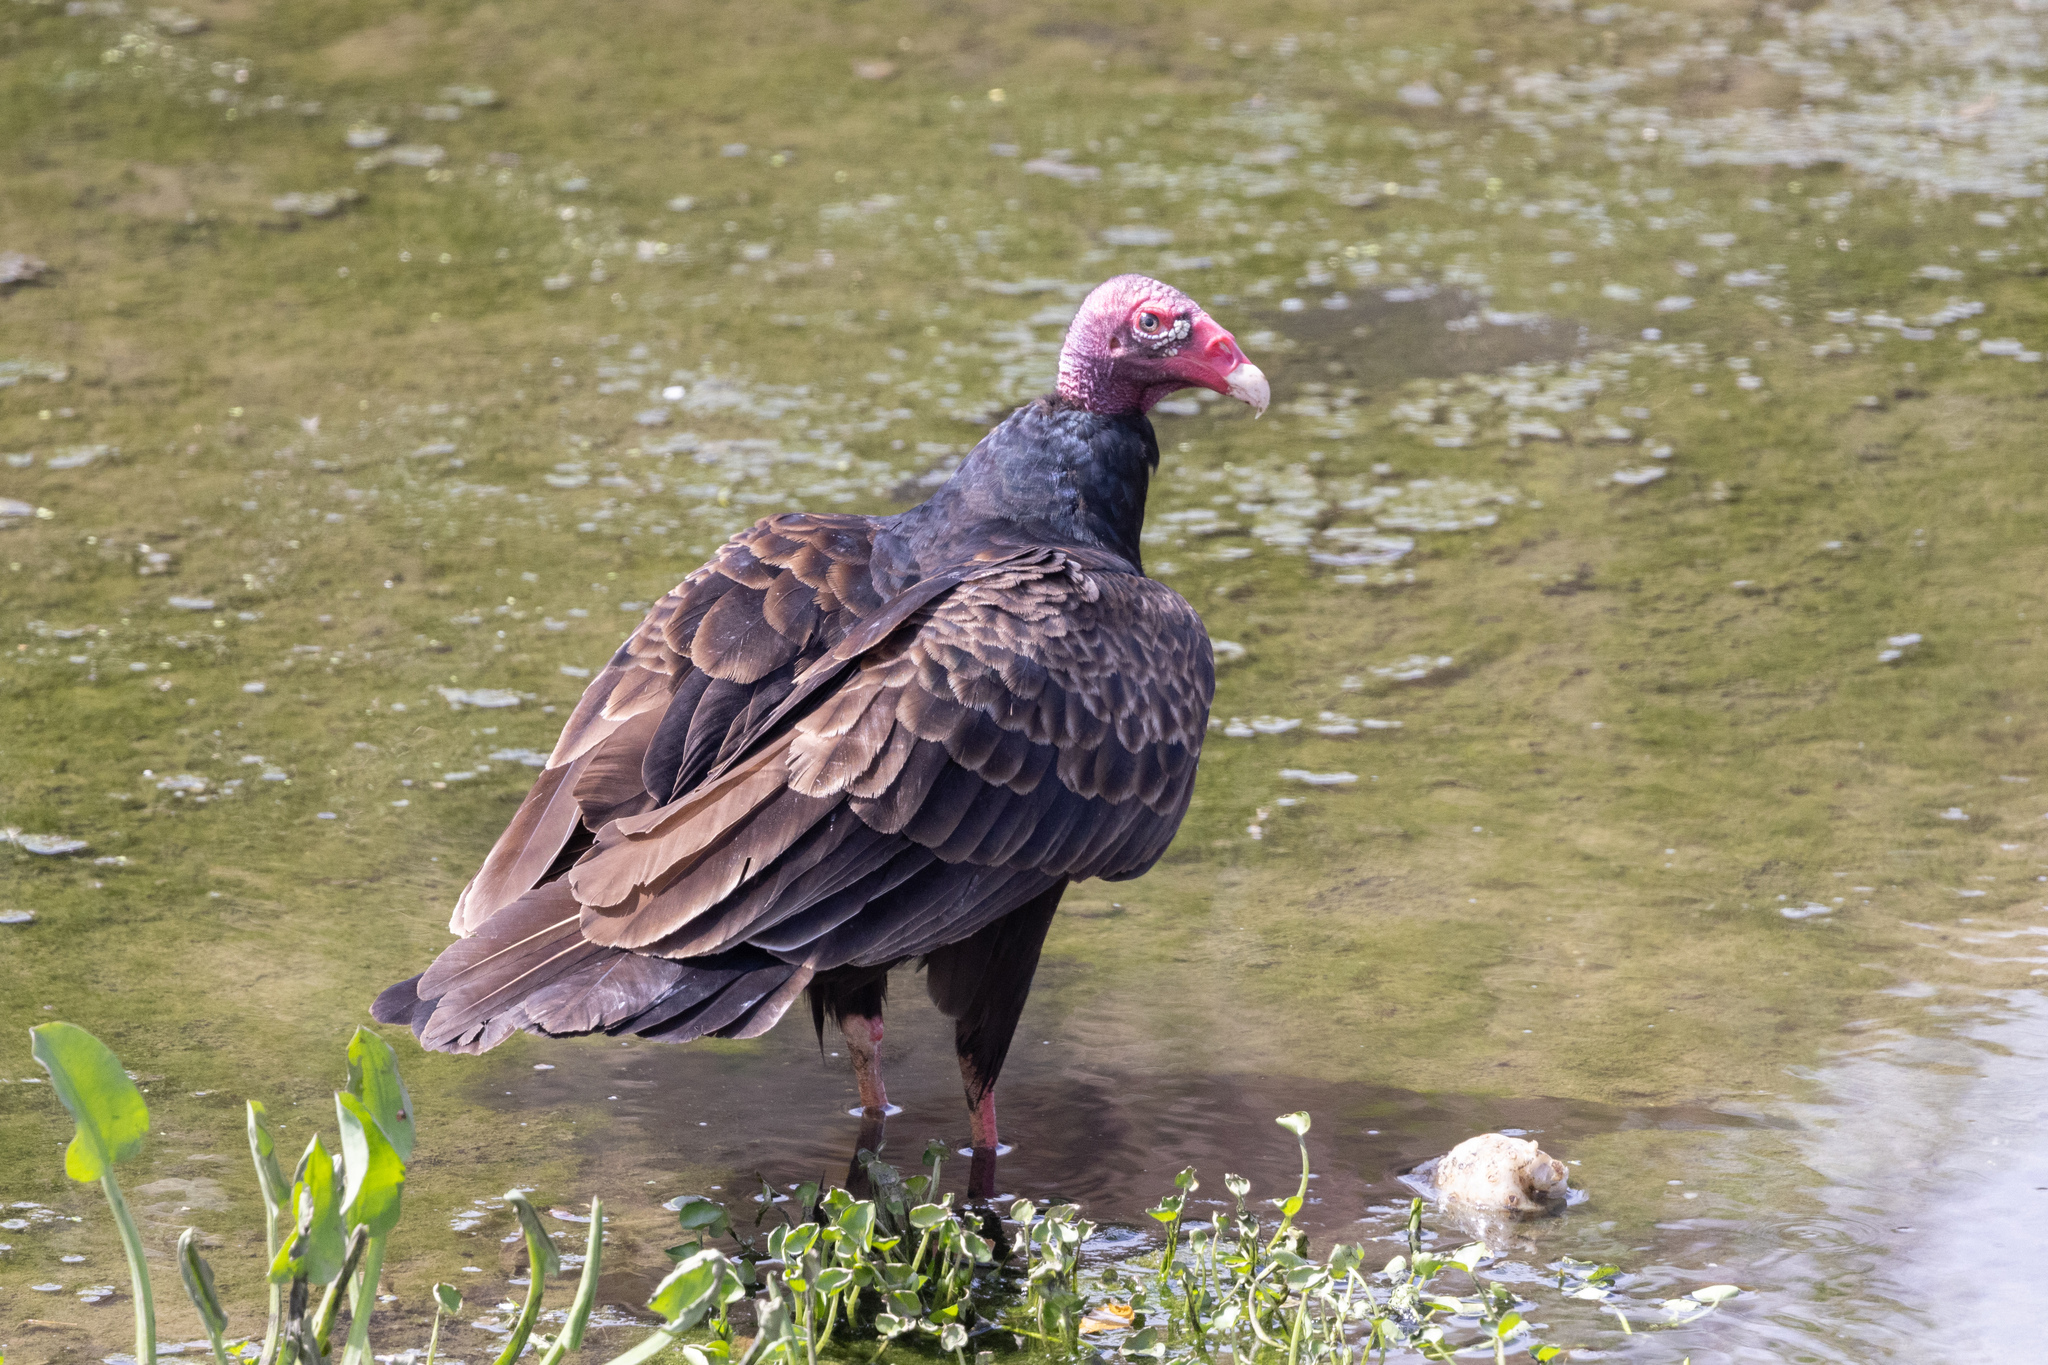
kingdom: Animalia
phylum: Chordata
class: Aves
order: Accipitriformes
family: Cathartidae
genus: Cathartes
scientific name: Cathartes aura
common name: Turkey vulture
